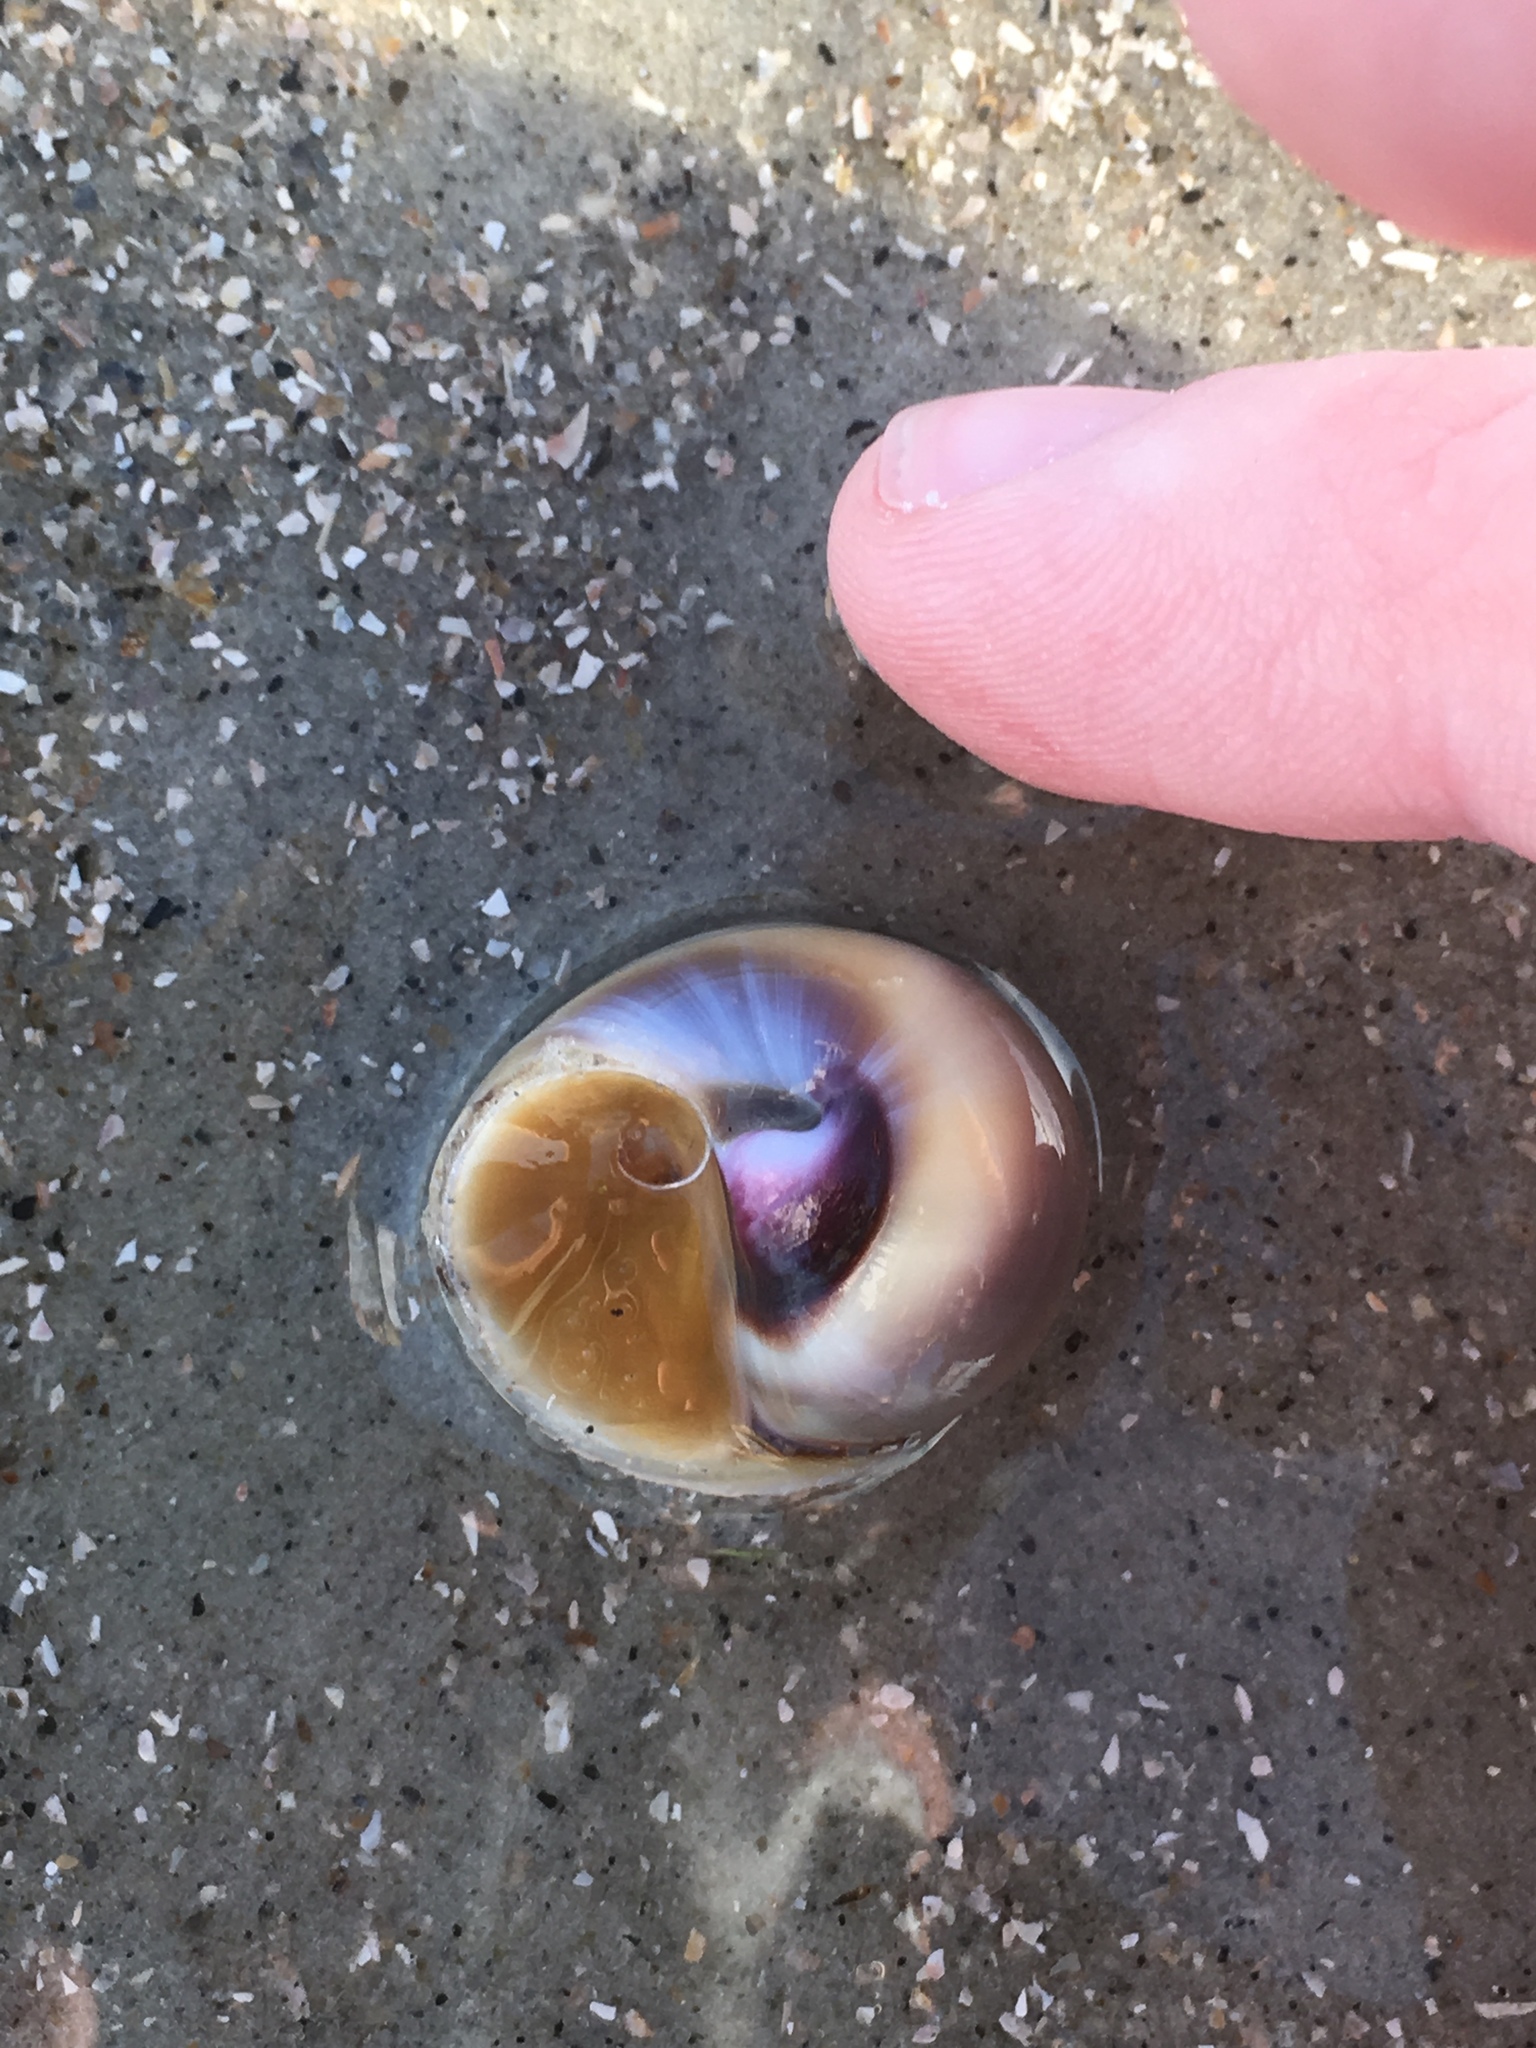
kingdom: Animalia
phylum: Mollusca
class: Gastropoda
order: Littorinimorpha
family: Naticidae
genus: Neverita
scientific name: Neverita duplicata
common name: Lobed moonsnail
